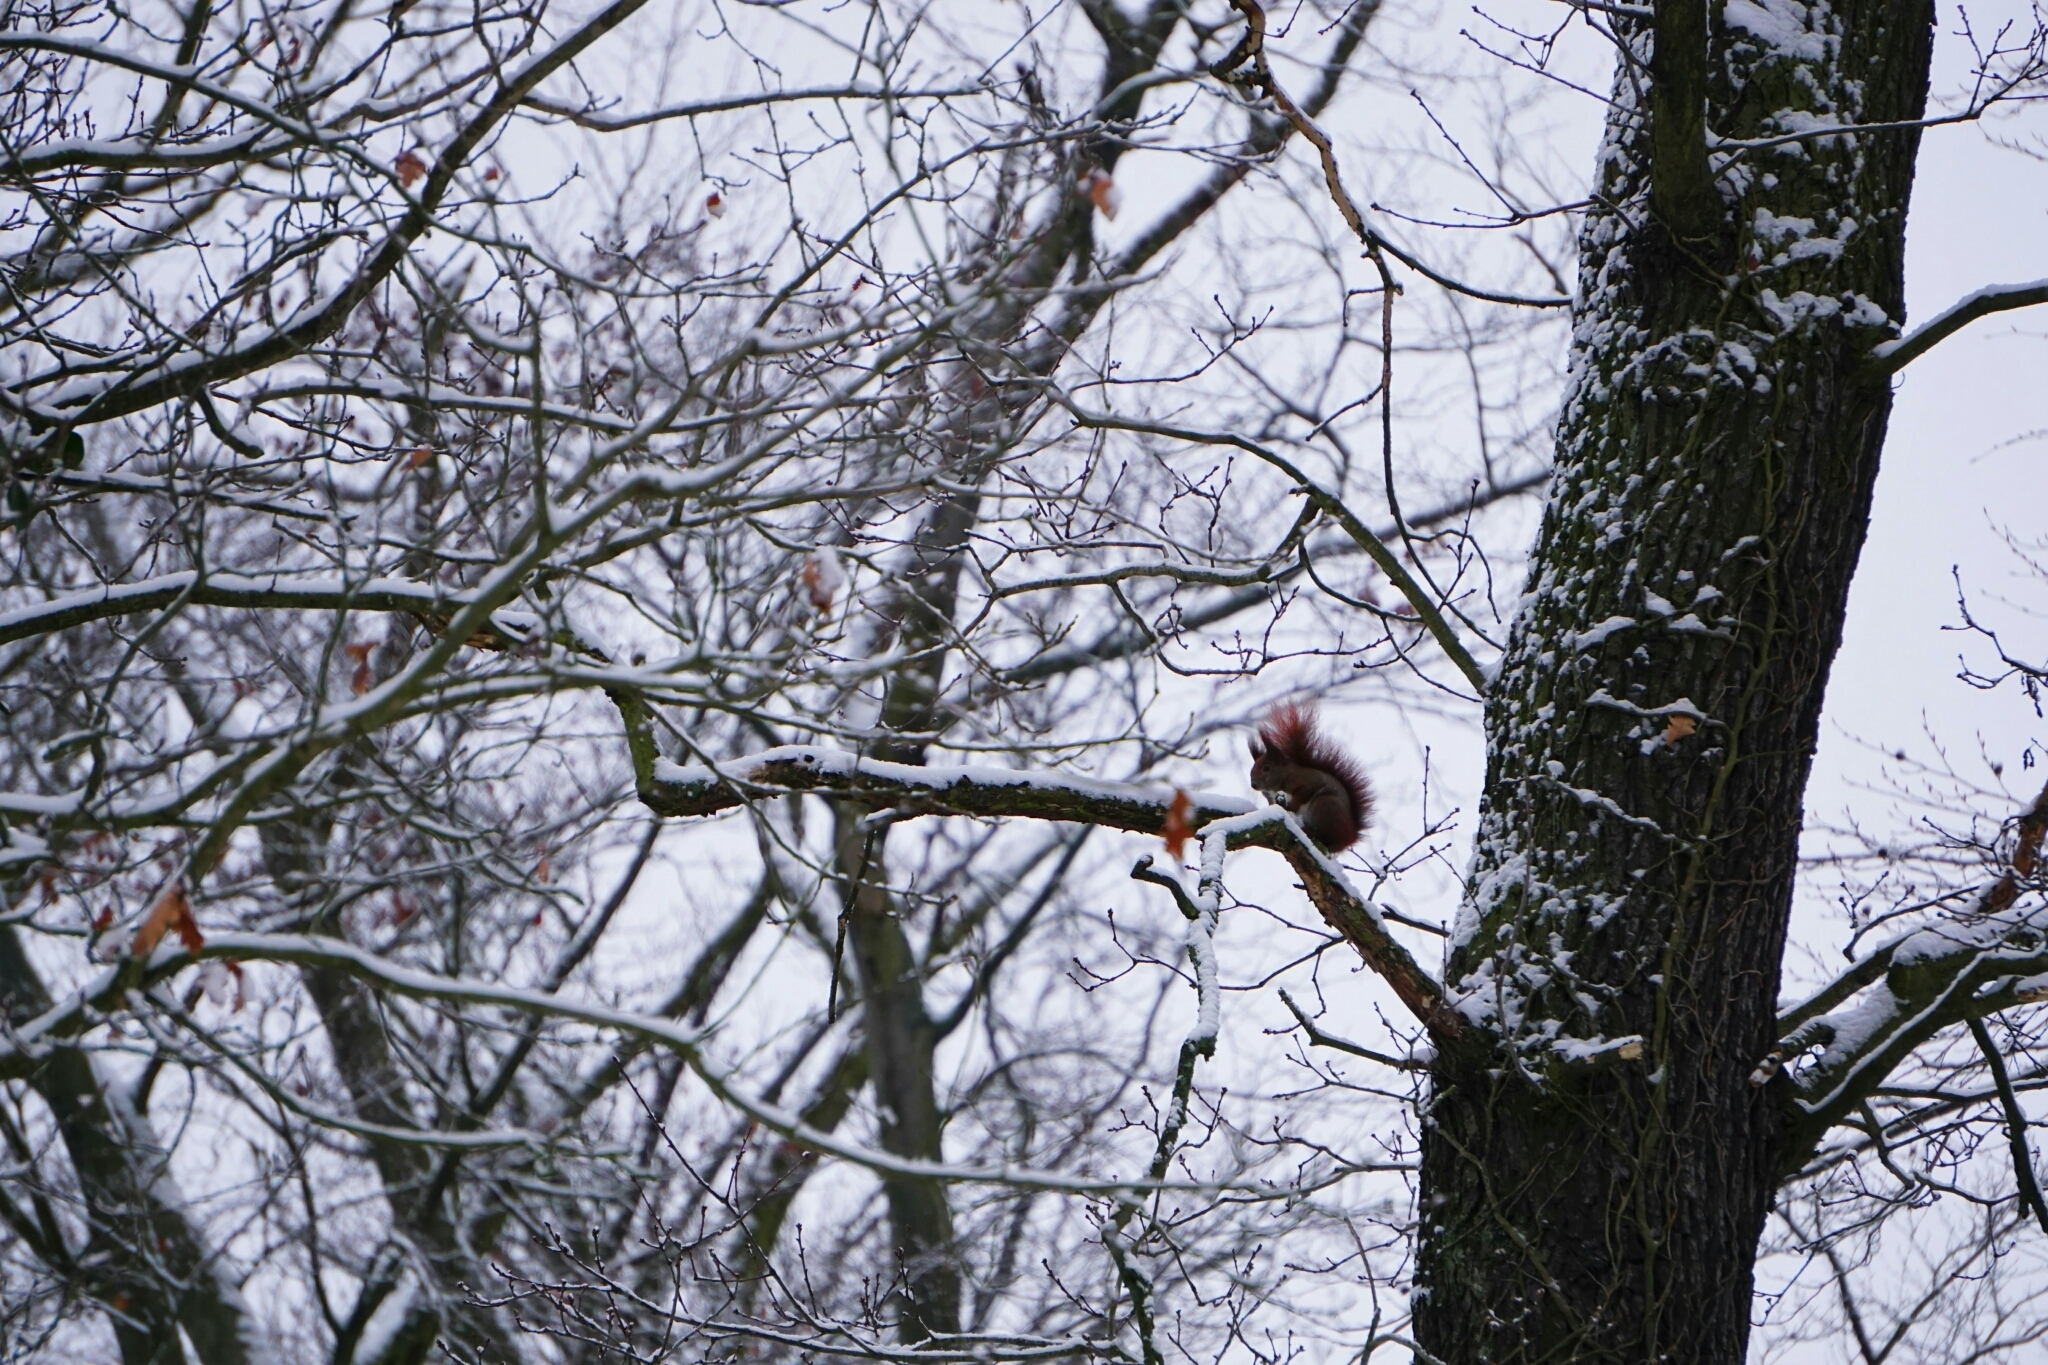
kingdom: Animalia
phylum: Chordata
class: Mammalia
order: Rodentia
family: Sciuridae
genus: Sciurus
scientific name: Sciurus vulgaris
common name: Eurasian red squirrel
